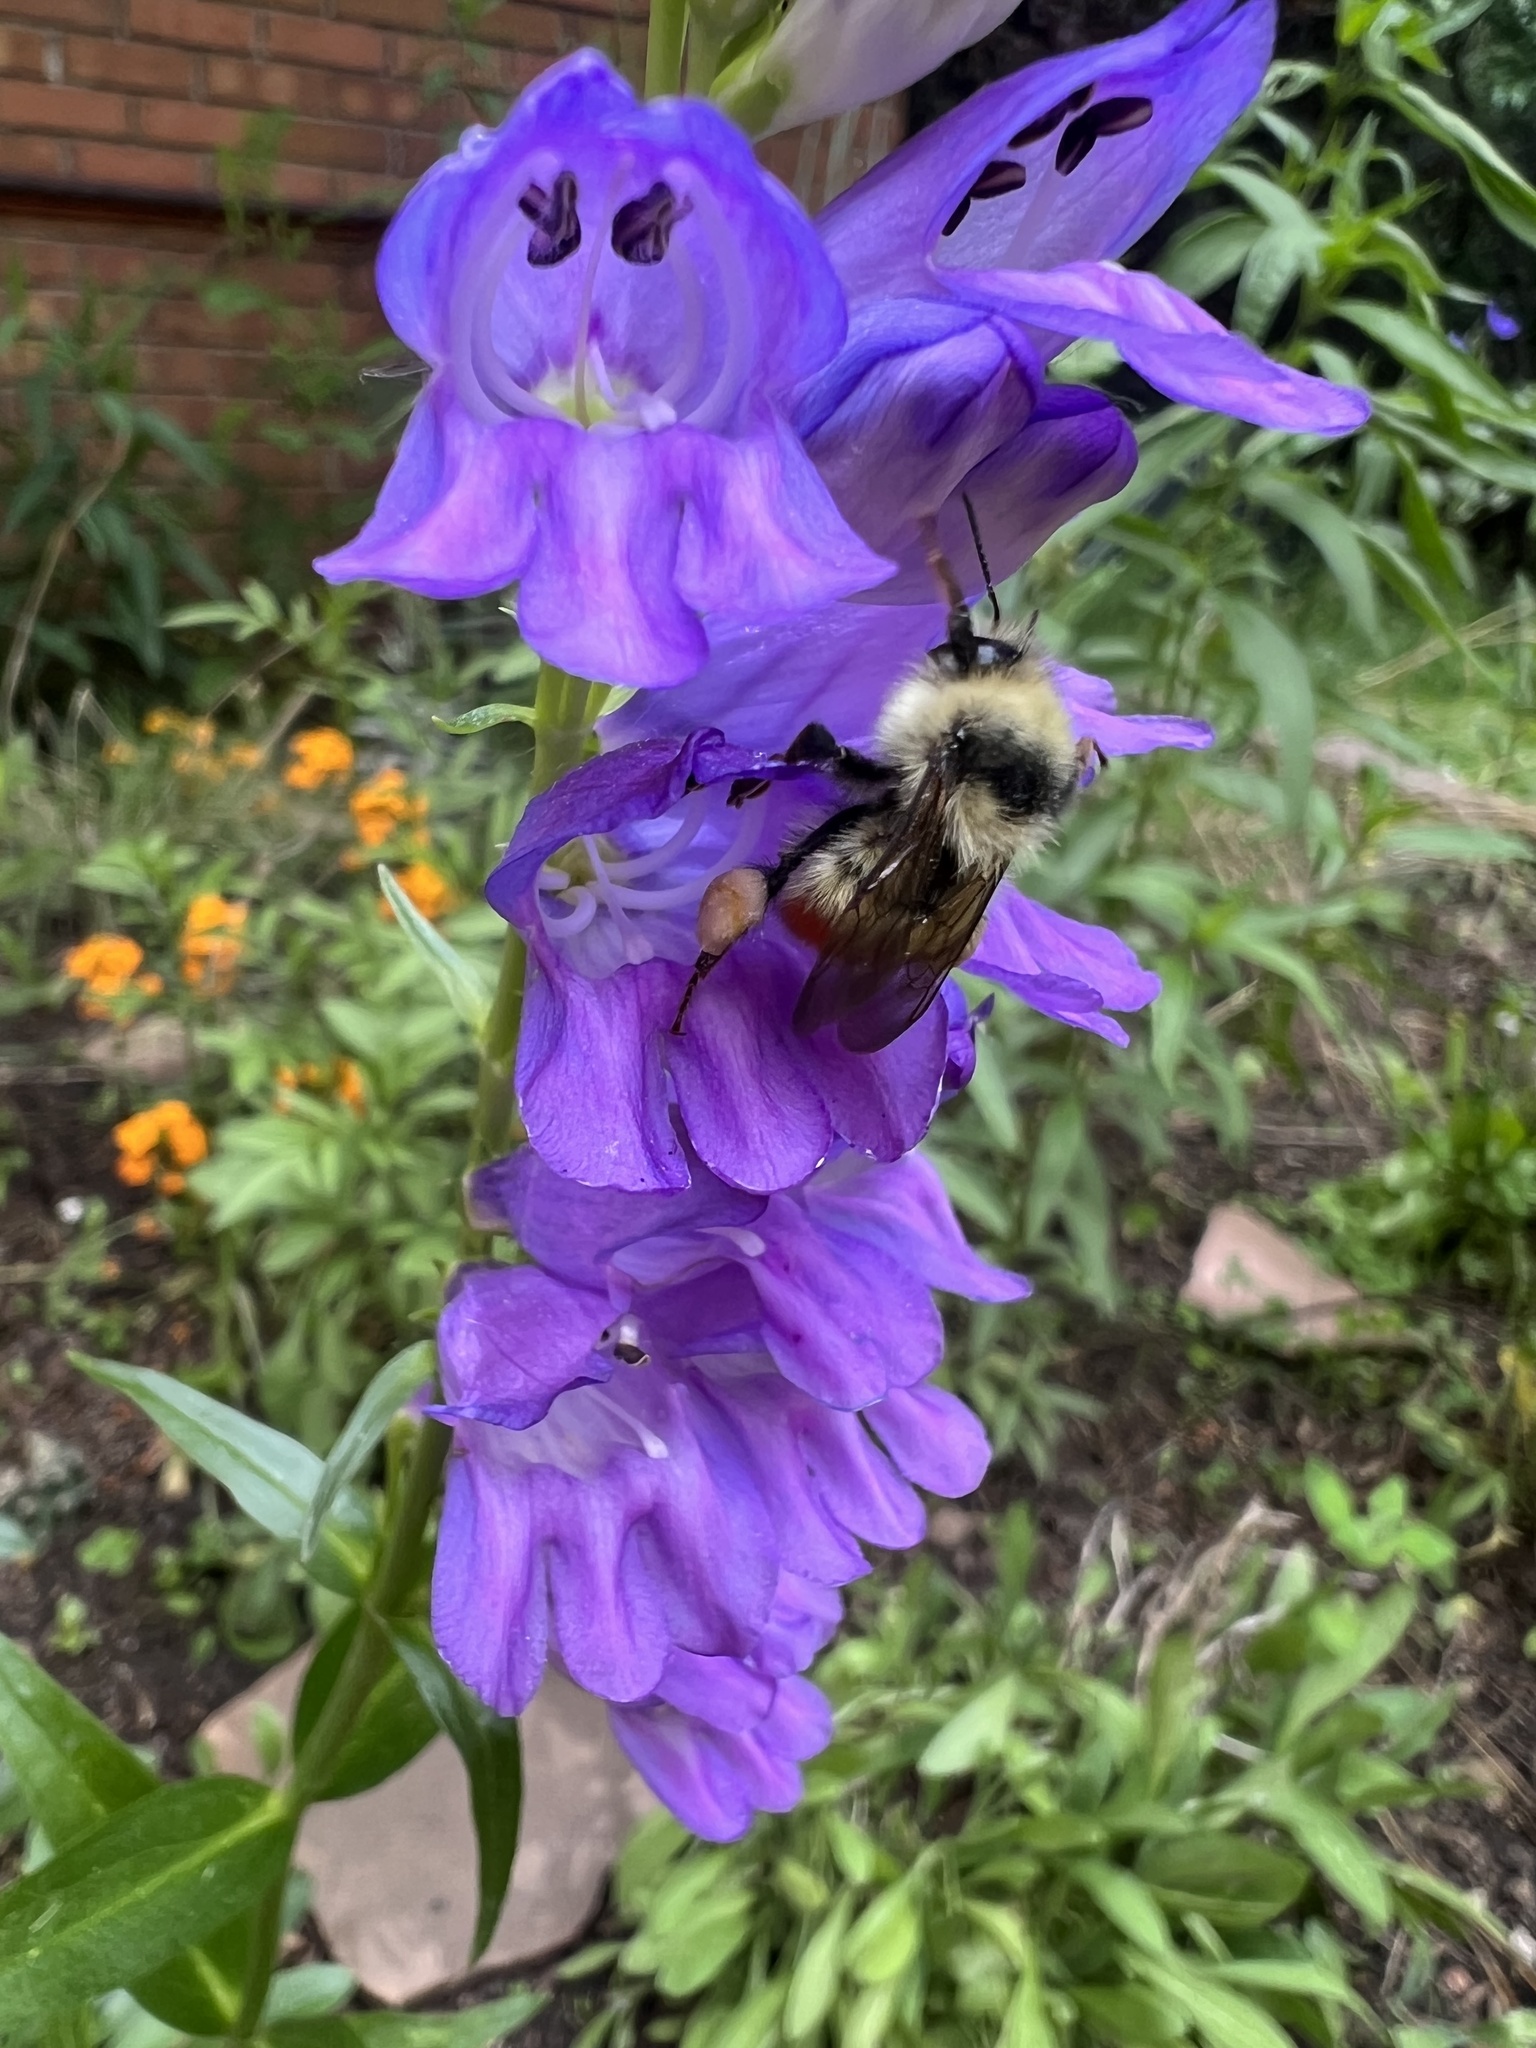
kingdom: Animalia
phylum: Arthropoda
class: Insecta
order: Hymenoptera
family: Apidae
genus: Bombus
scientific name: Bombus centralis
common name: Central bumble bee
